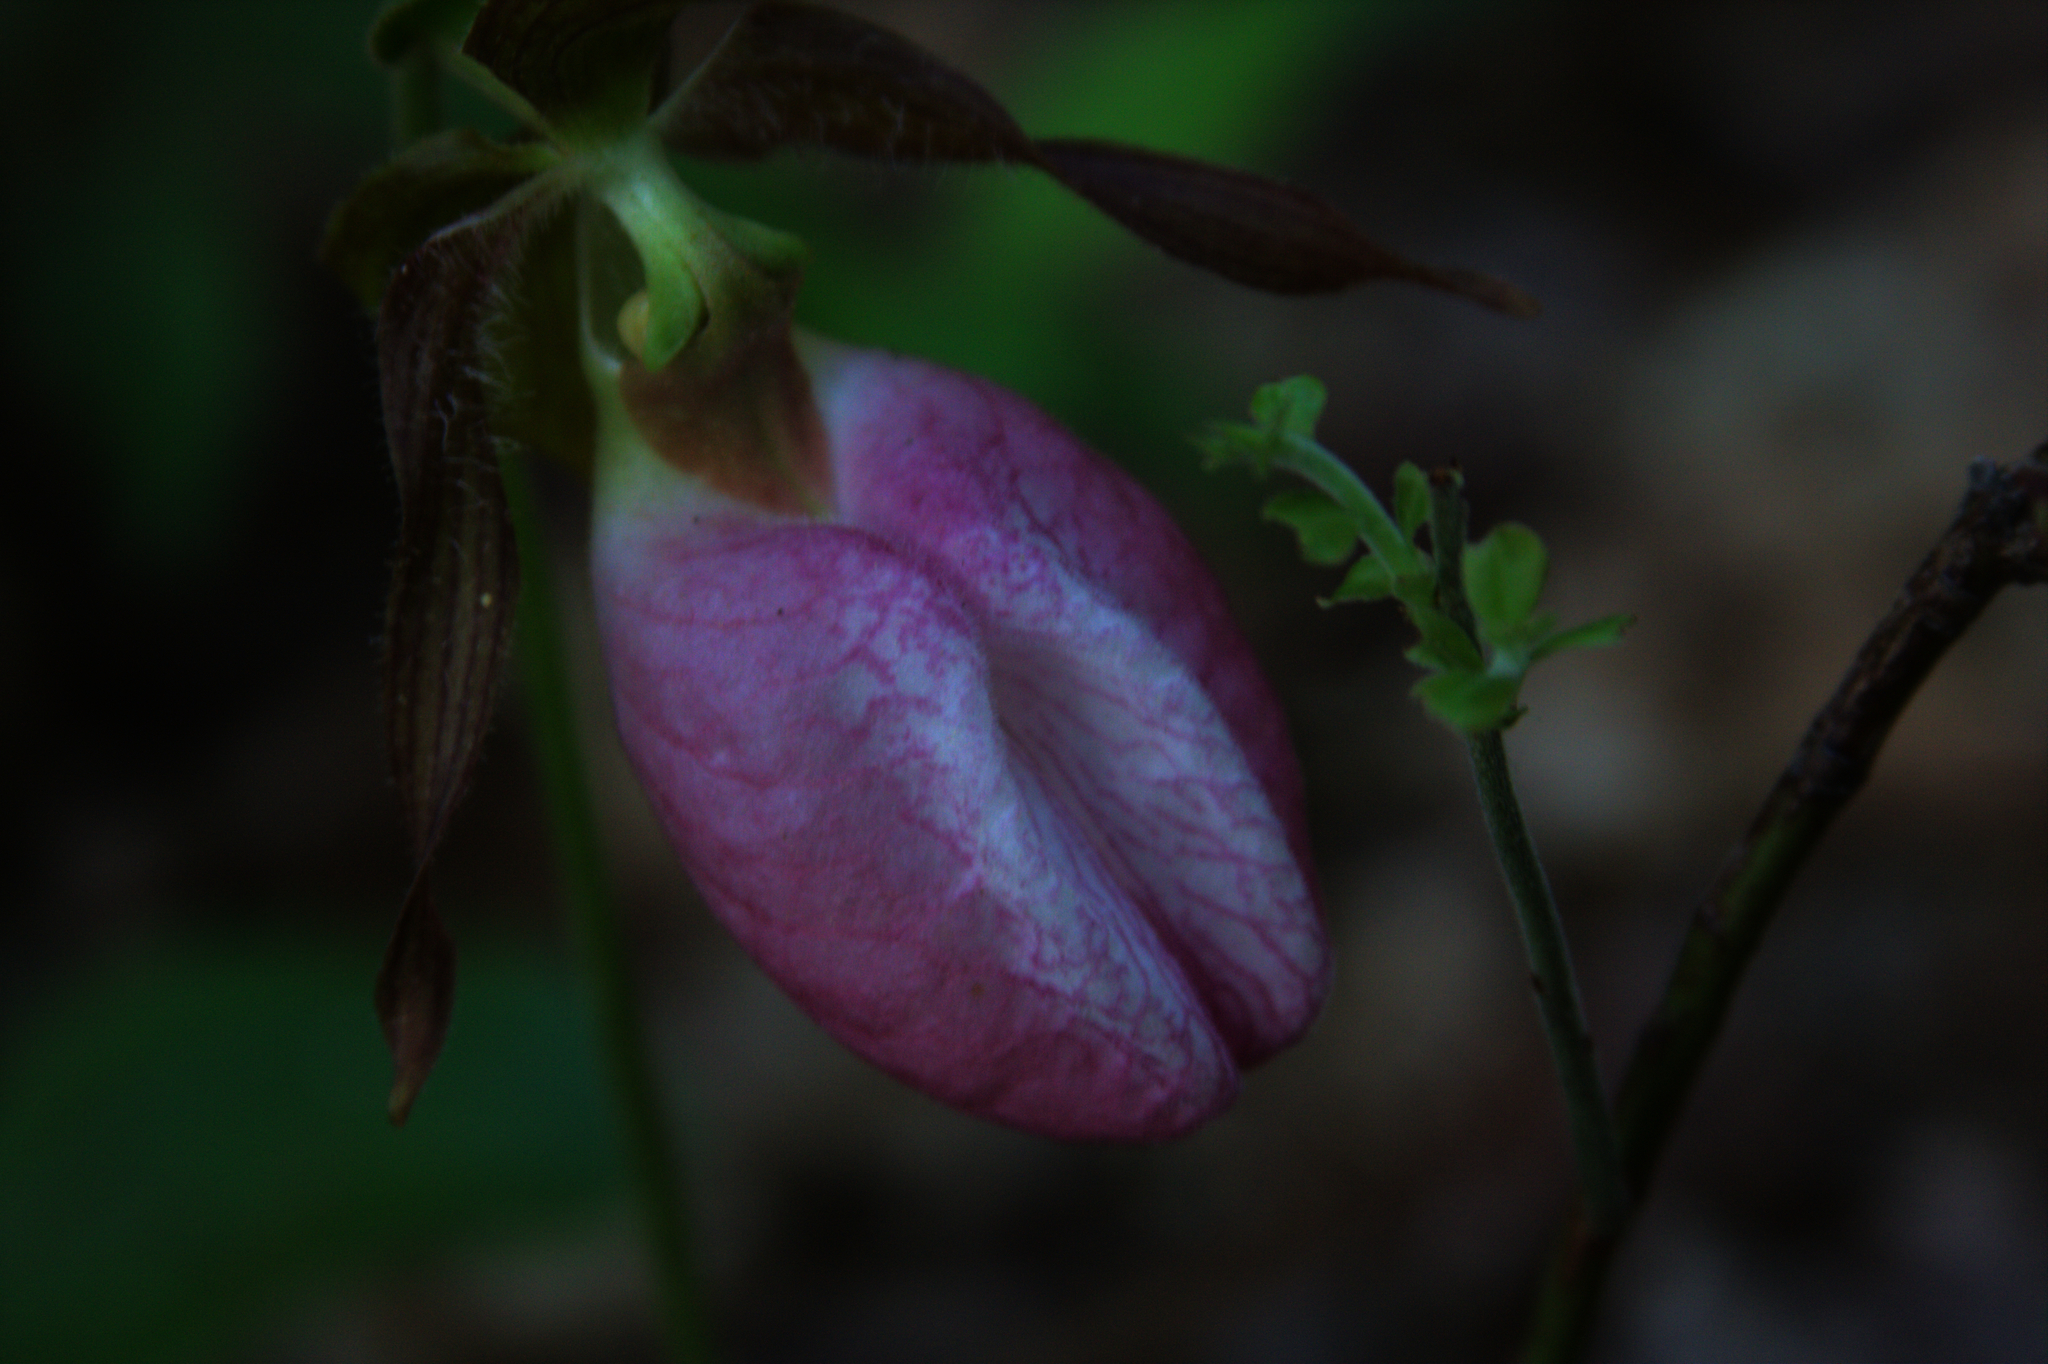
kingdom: Plantae
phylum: Tracheophyta
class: Liliopsida
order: Asparagales
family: Orchidaceae
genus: Cypripedium
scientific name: Cypripedium acaule
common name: Pink lady's-slipper
